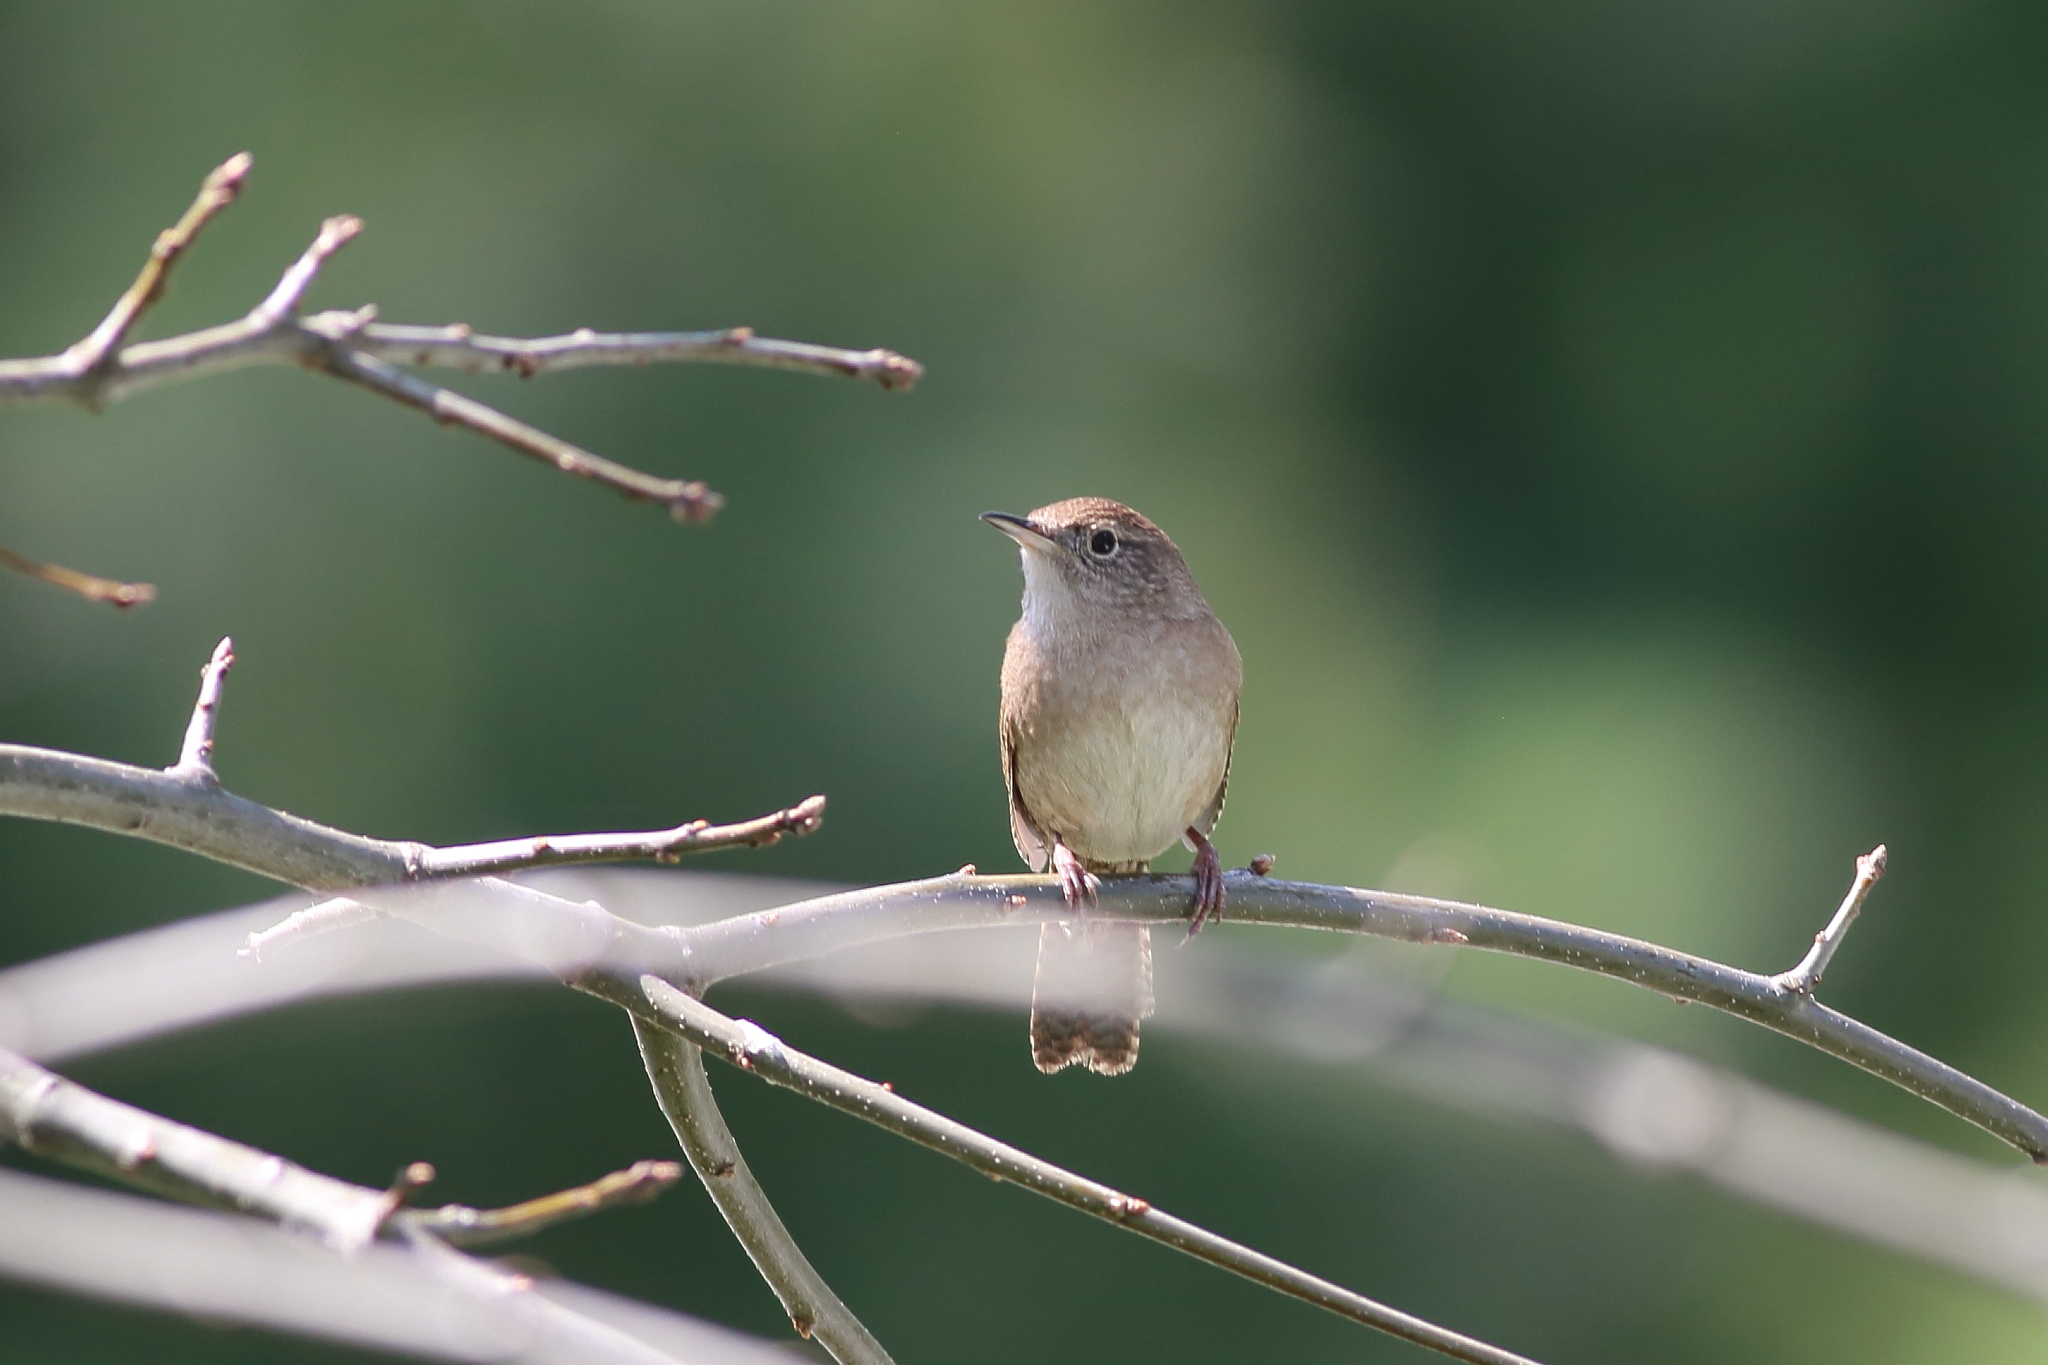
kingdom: Animalia
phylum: Chordata
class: Aves
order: Passeriformes
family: Troglodytidae
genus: Troglodytes
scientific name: Troglodytes aedon
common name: House wren
